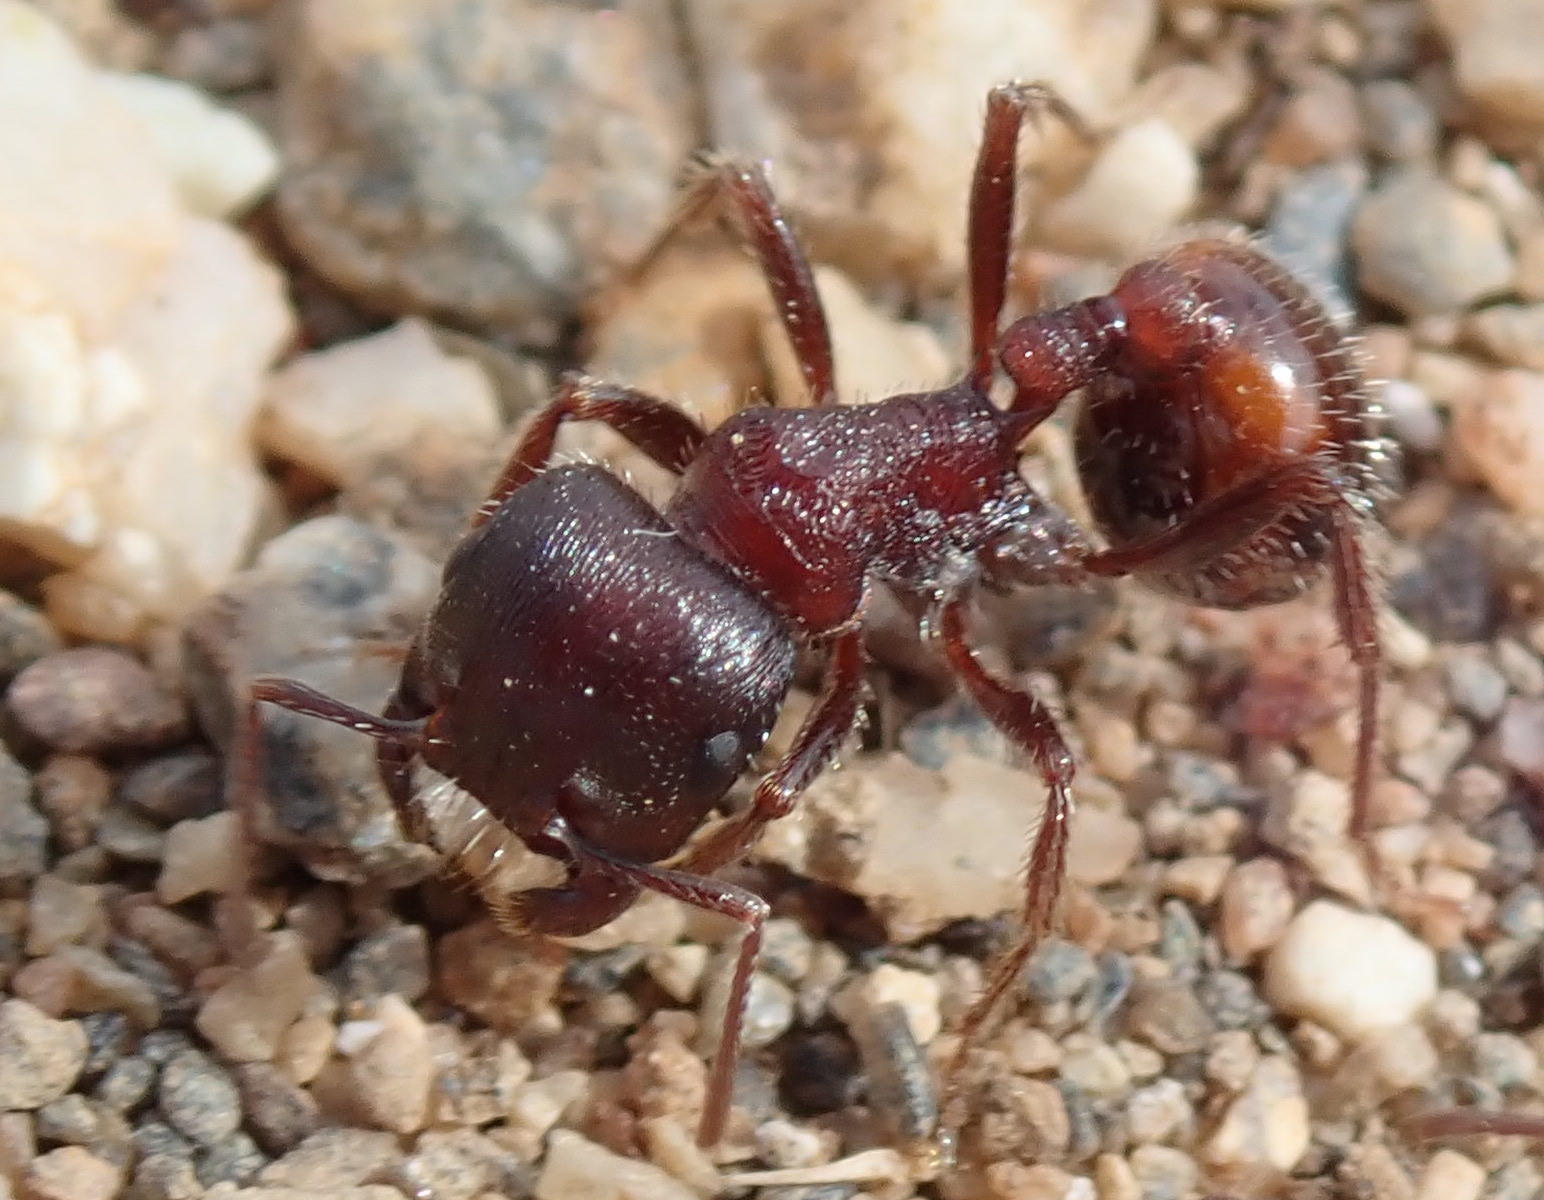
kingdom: Animalia
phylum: Arthropoda
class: Insecta
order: Hymenoptera
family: Formicidae
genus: Pogonomyrmex
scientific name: Pogonomyrmex rugosus
